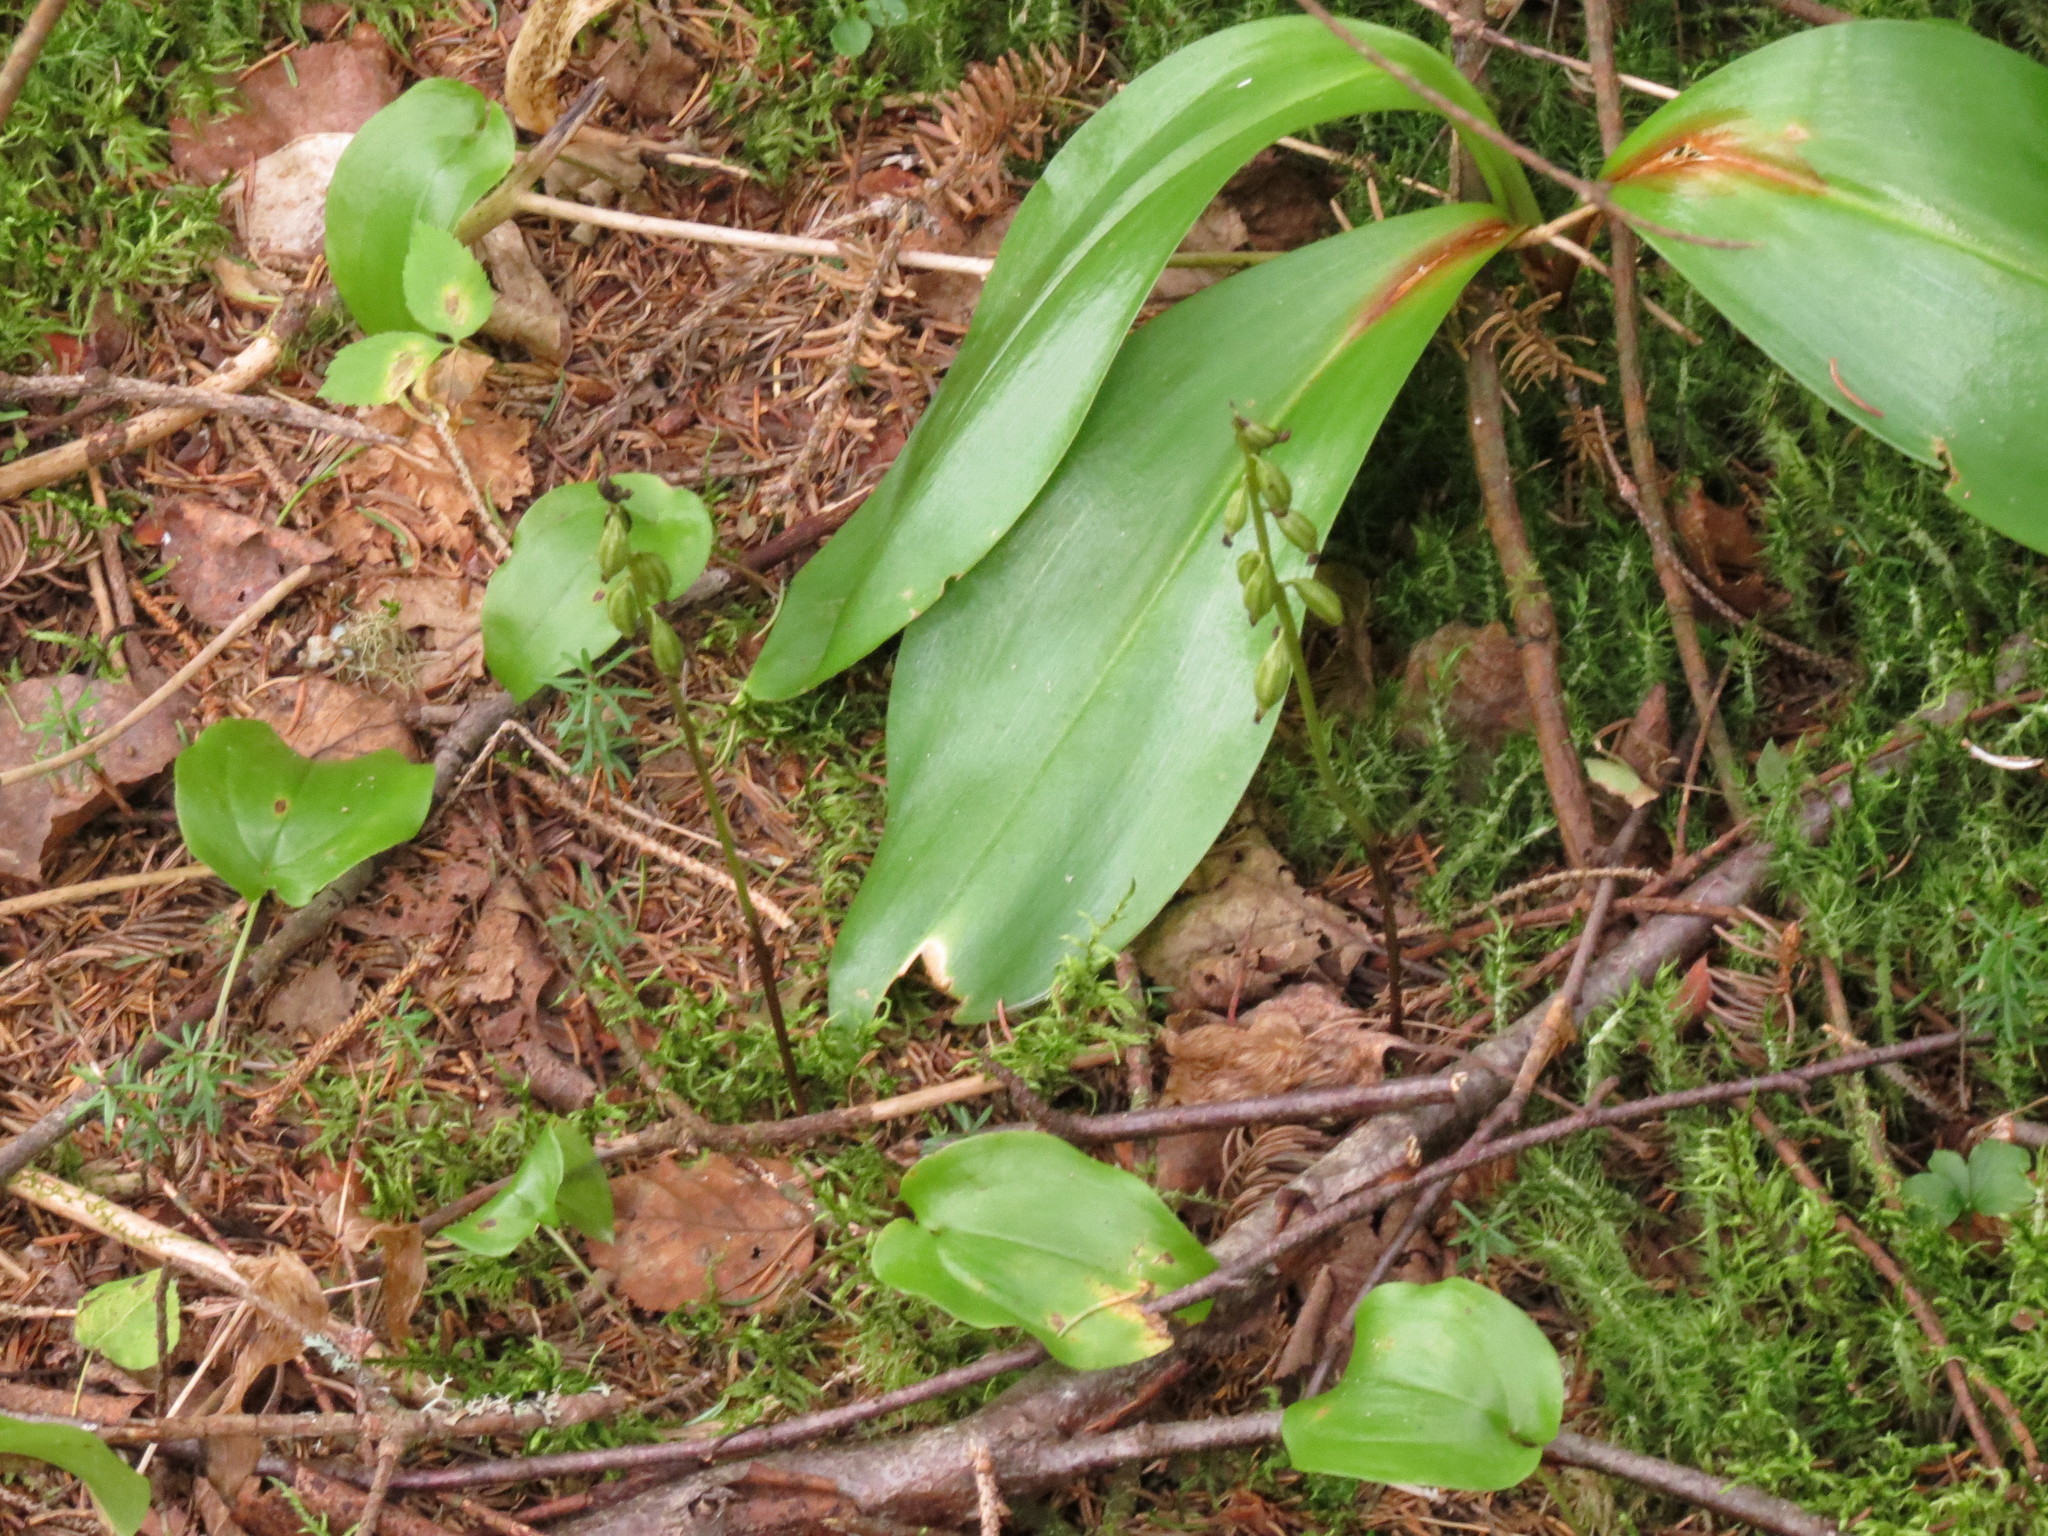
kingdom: Plantae
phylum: Tracheophyta
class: Liliopsida
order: Asparagales
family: Orchidaceae
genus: Corallorhiza
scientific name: Corallorhiza trifida
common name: Yellow coralroot
